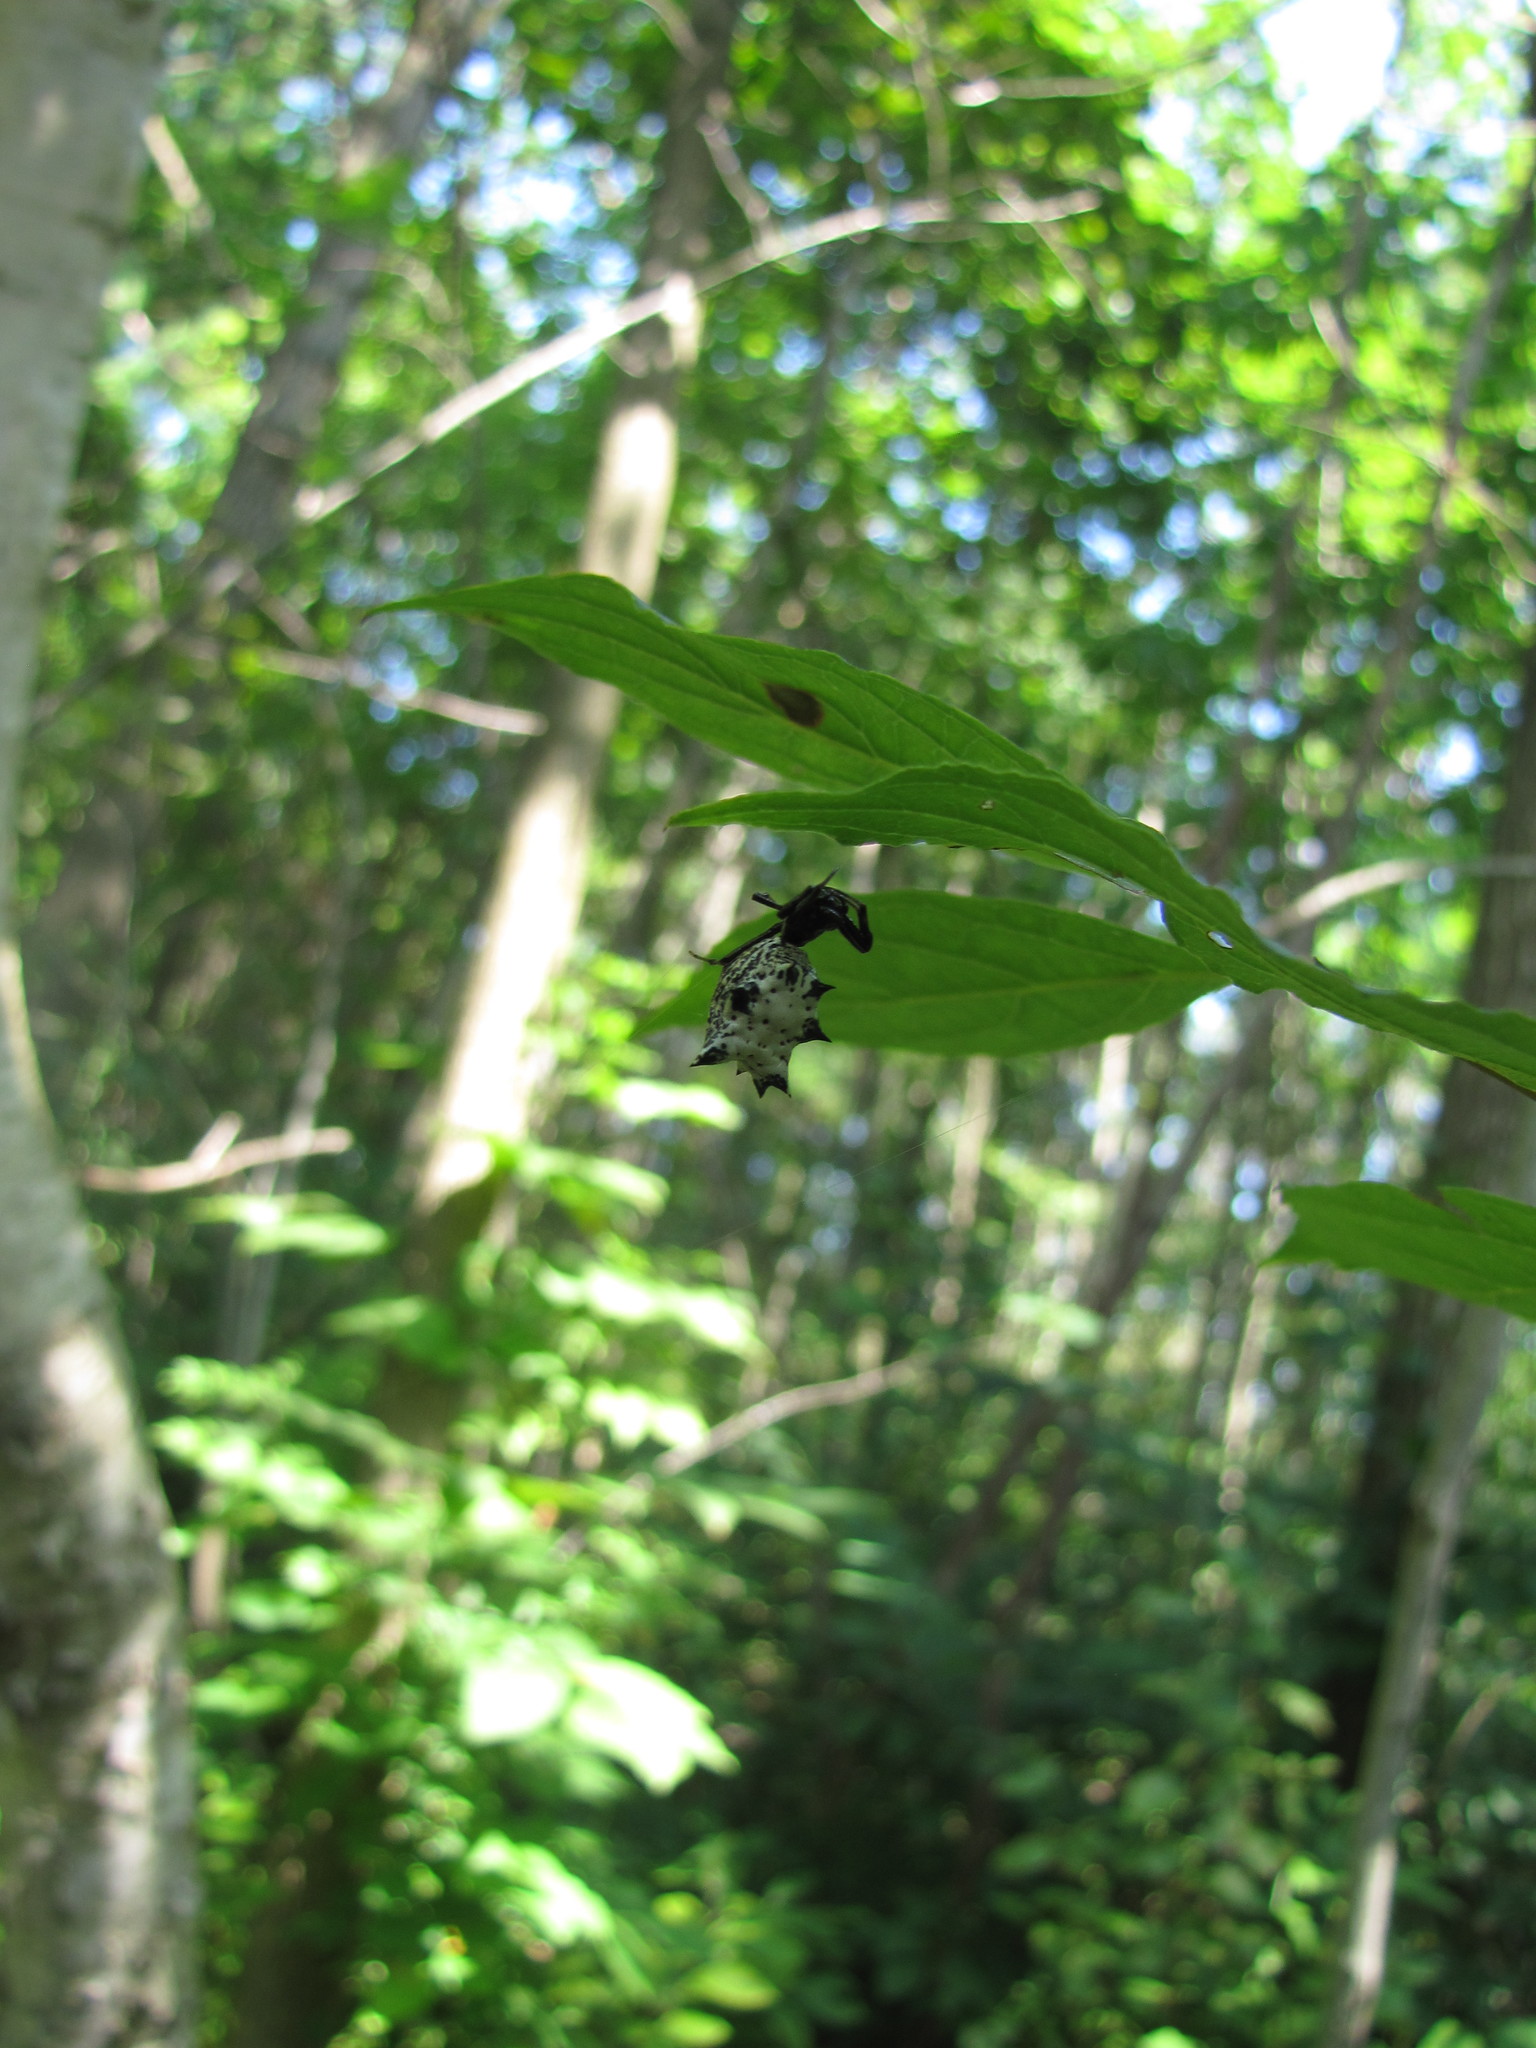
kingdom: Animalia
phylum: Arthropoda
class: Arachnida
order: Araneae
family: Araneidae
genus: Micrathena
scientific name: Micrathena gracilis
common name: Orb weavers
